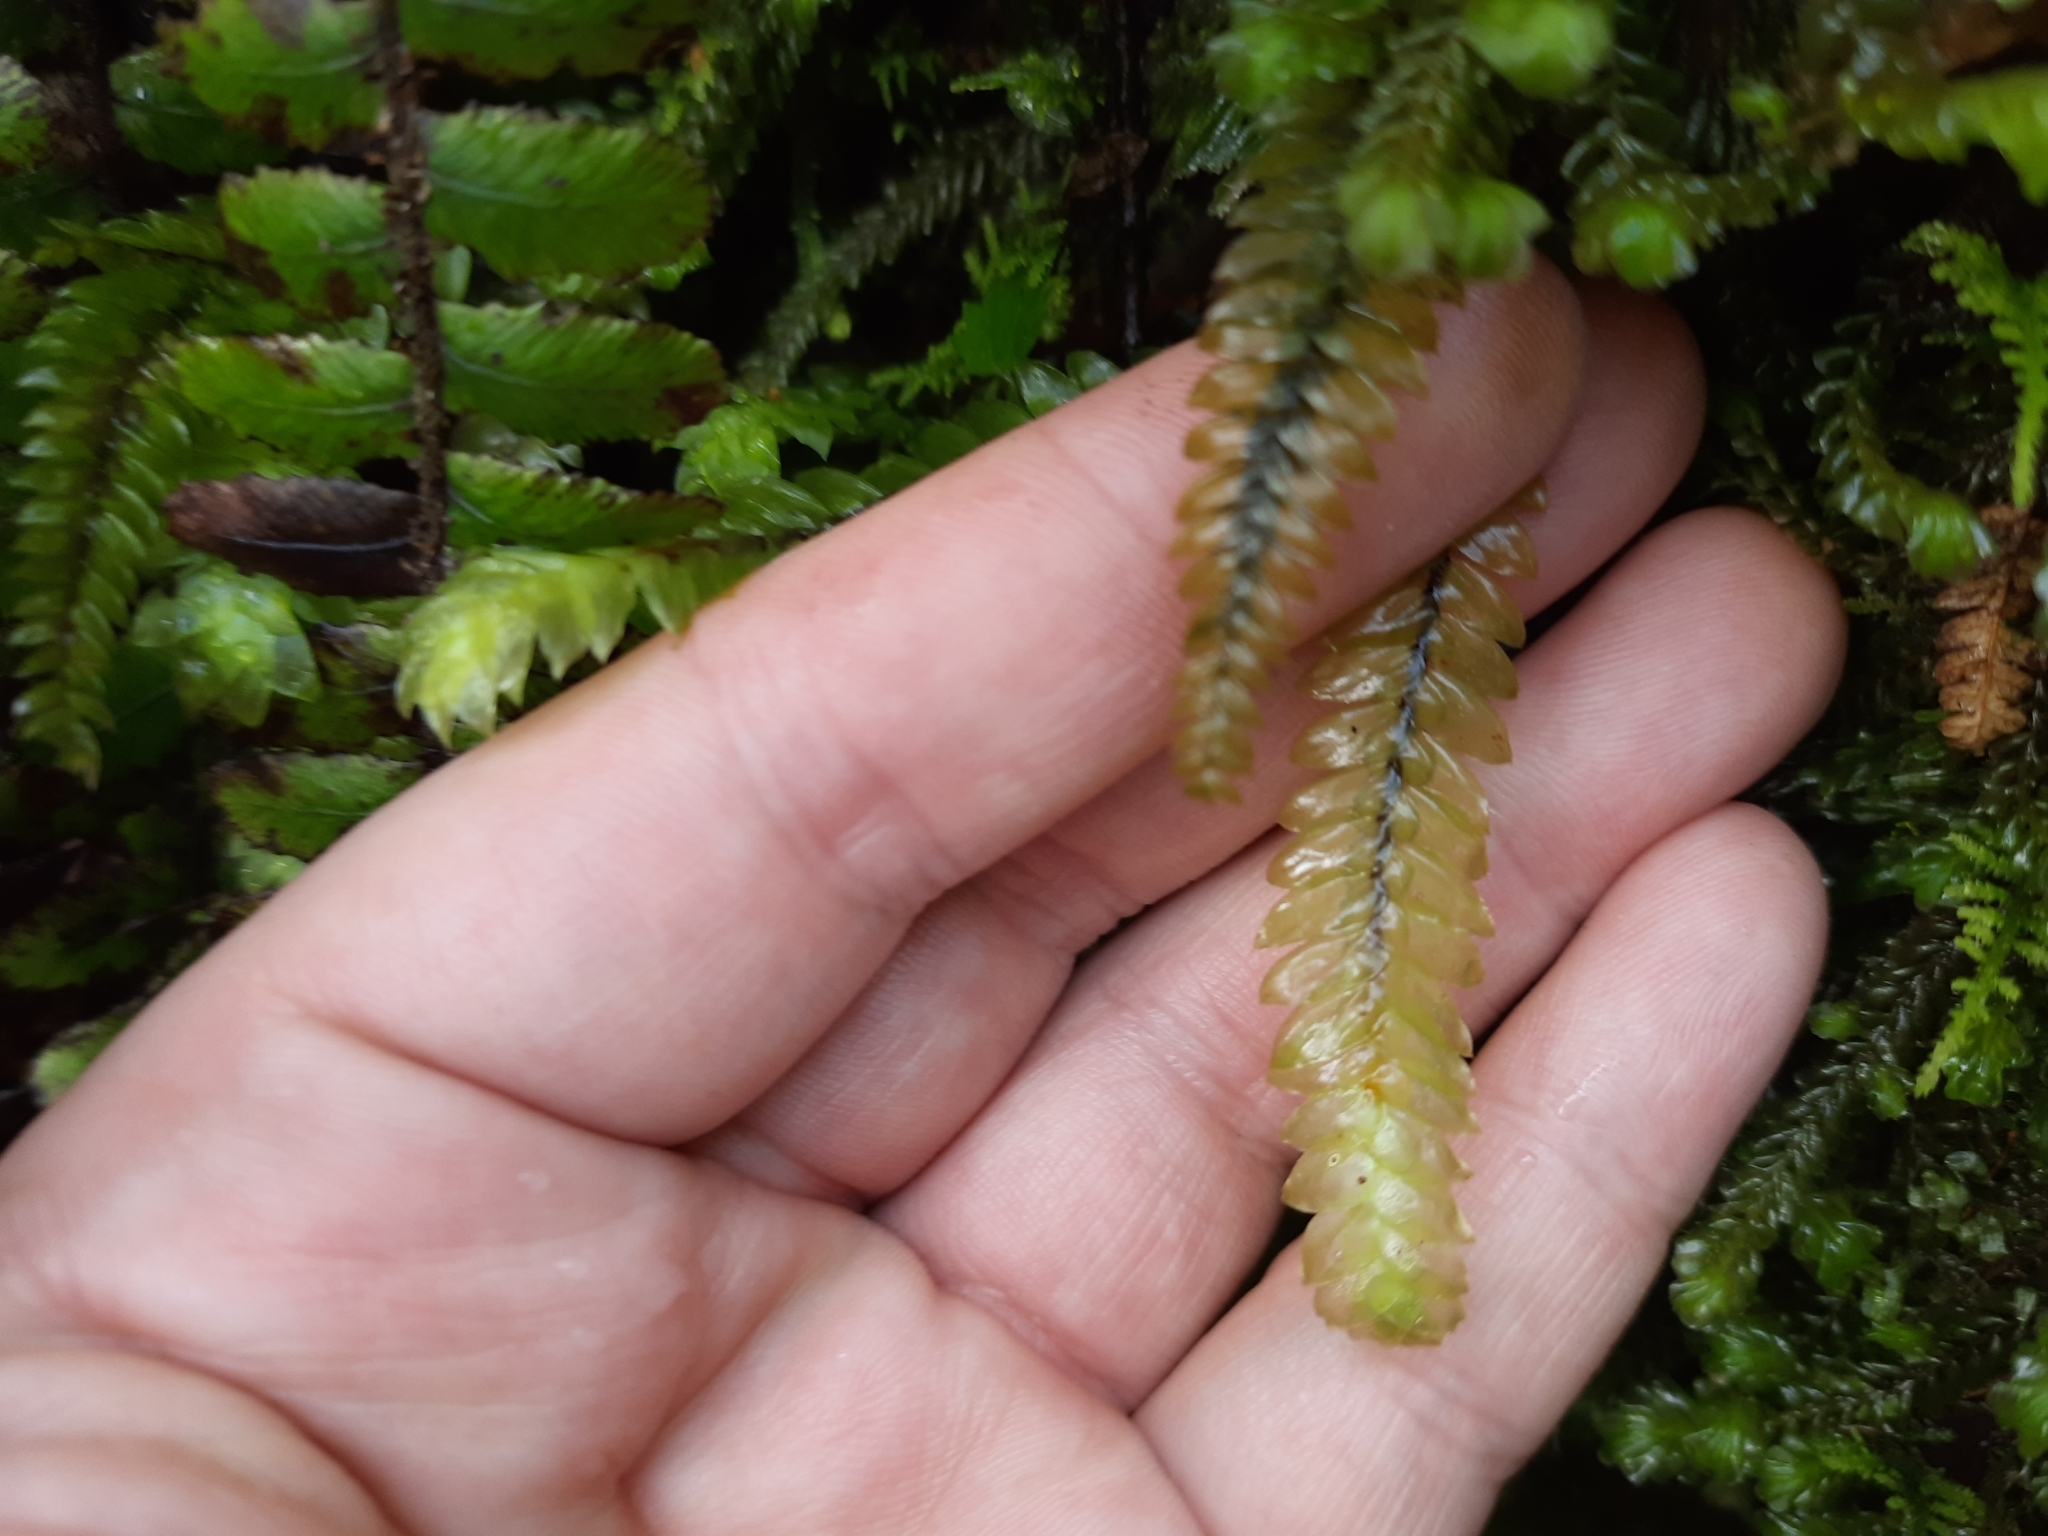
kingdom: Plantae
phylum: Bryophyta
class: Bryopsida
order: Hypopterygiales
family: Hypopterygiaceae
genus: Cyathophorum
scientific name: Cyathophorum bulbosum
